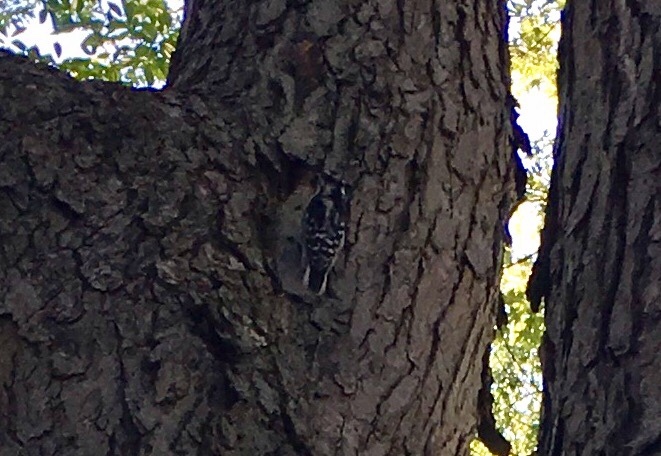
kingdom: Animalia
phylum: Chordata
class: Aves
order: Piciformes
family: Picidae
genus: Dryobates
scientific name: Dryobates pubescens
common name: Downy woodpecker
